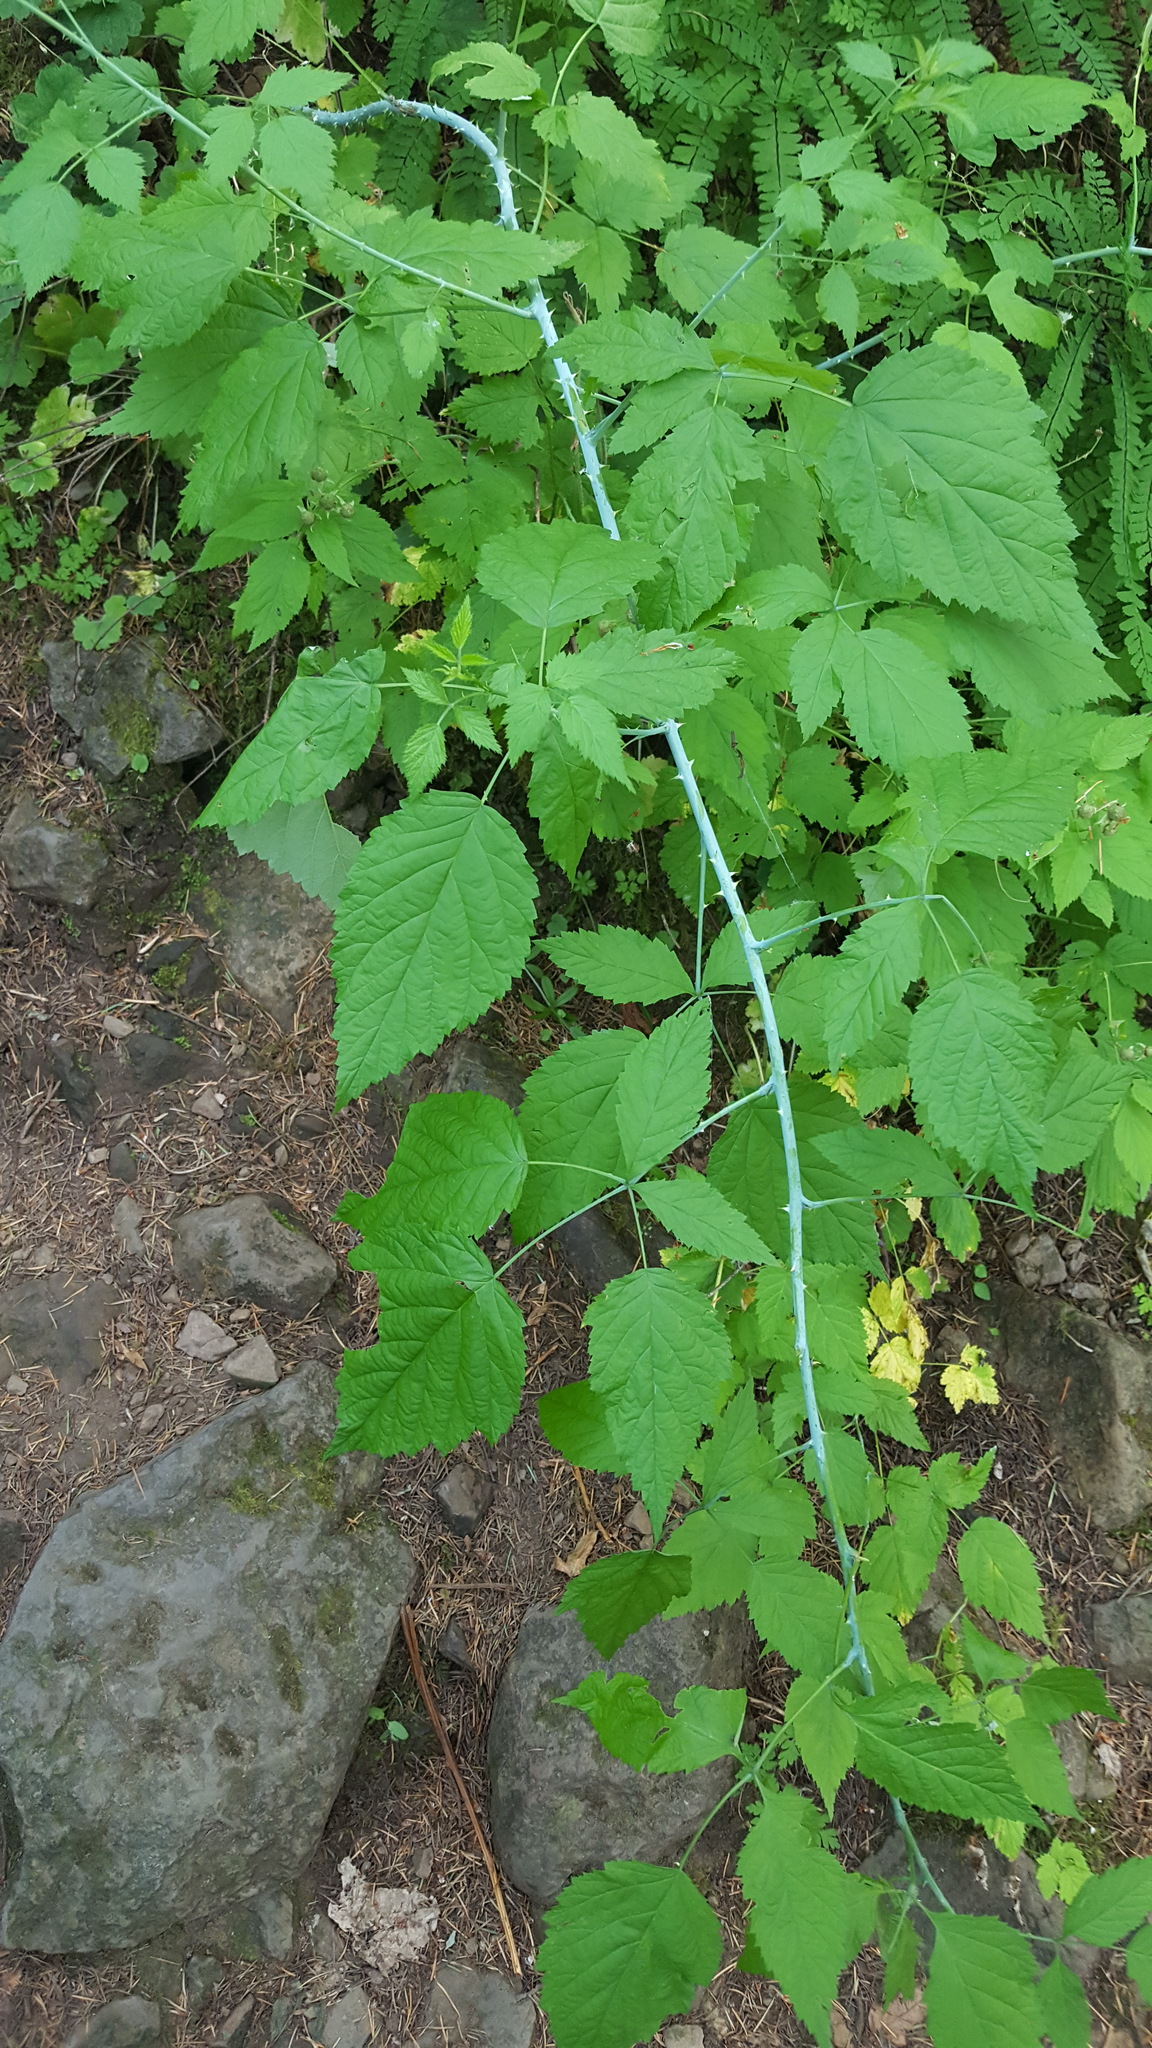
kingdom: Plantae
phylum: Tracheophyta
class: Magnoliopsida
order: Rosales
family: Rosaceae
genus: Rubus
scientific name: Rubus leucodermis
